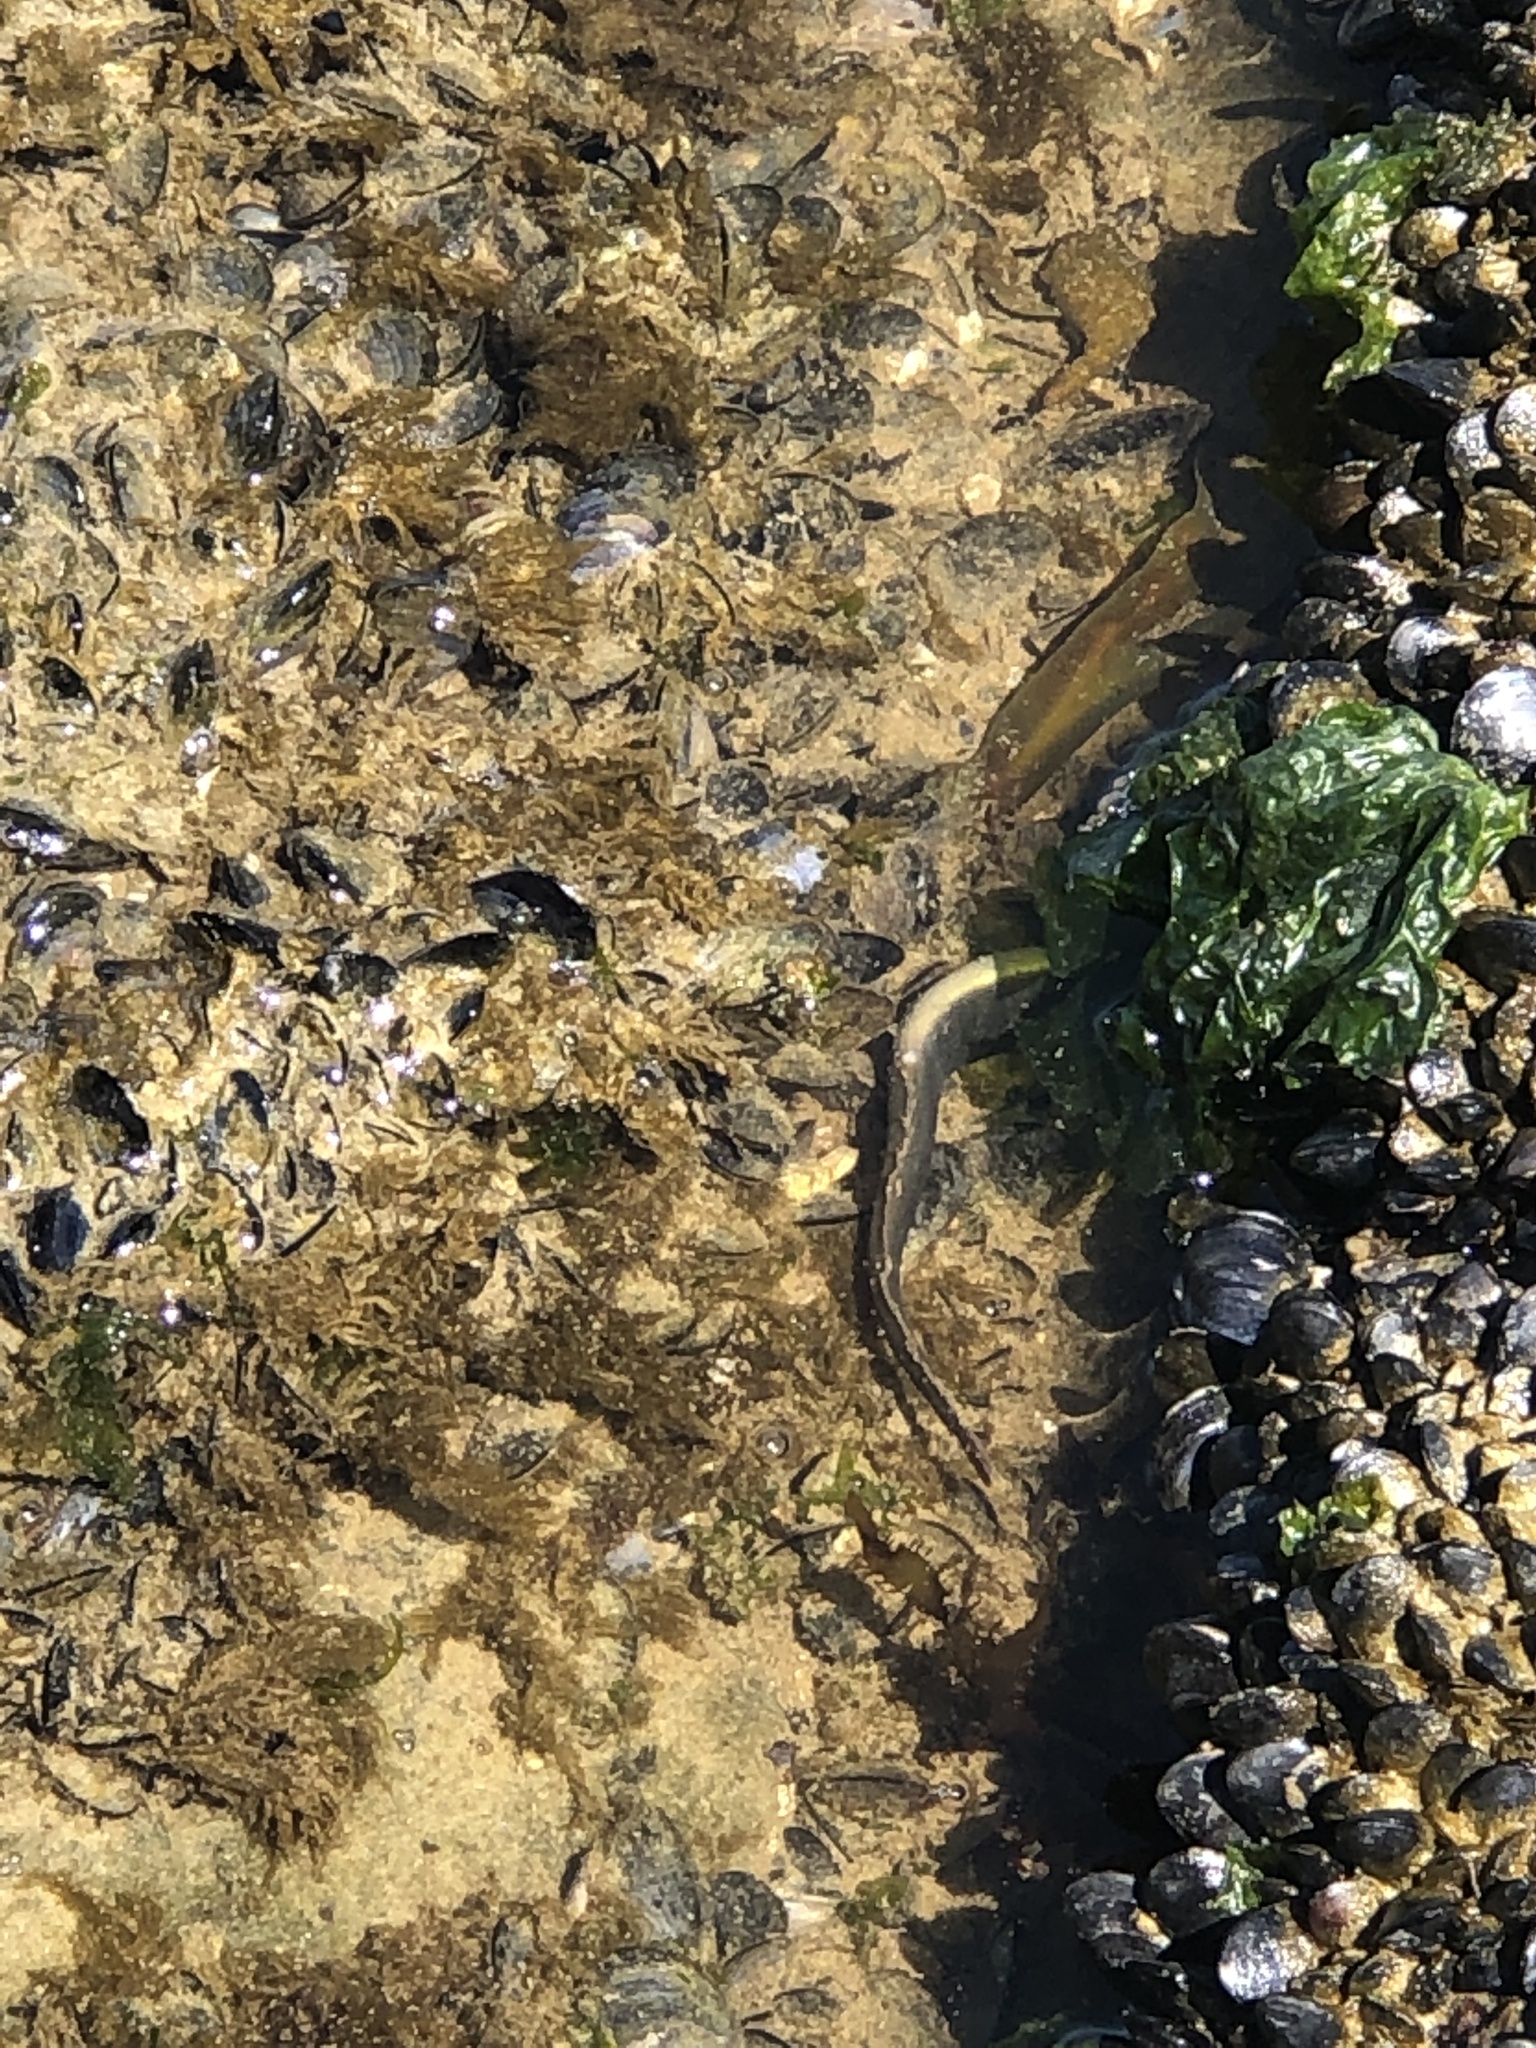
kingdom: Animalia
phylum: Chordata
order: Perciformes
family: Pholidae
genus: Pholis
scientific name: Pholis ornata
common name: Saddleback gunnel
